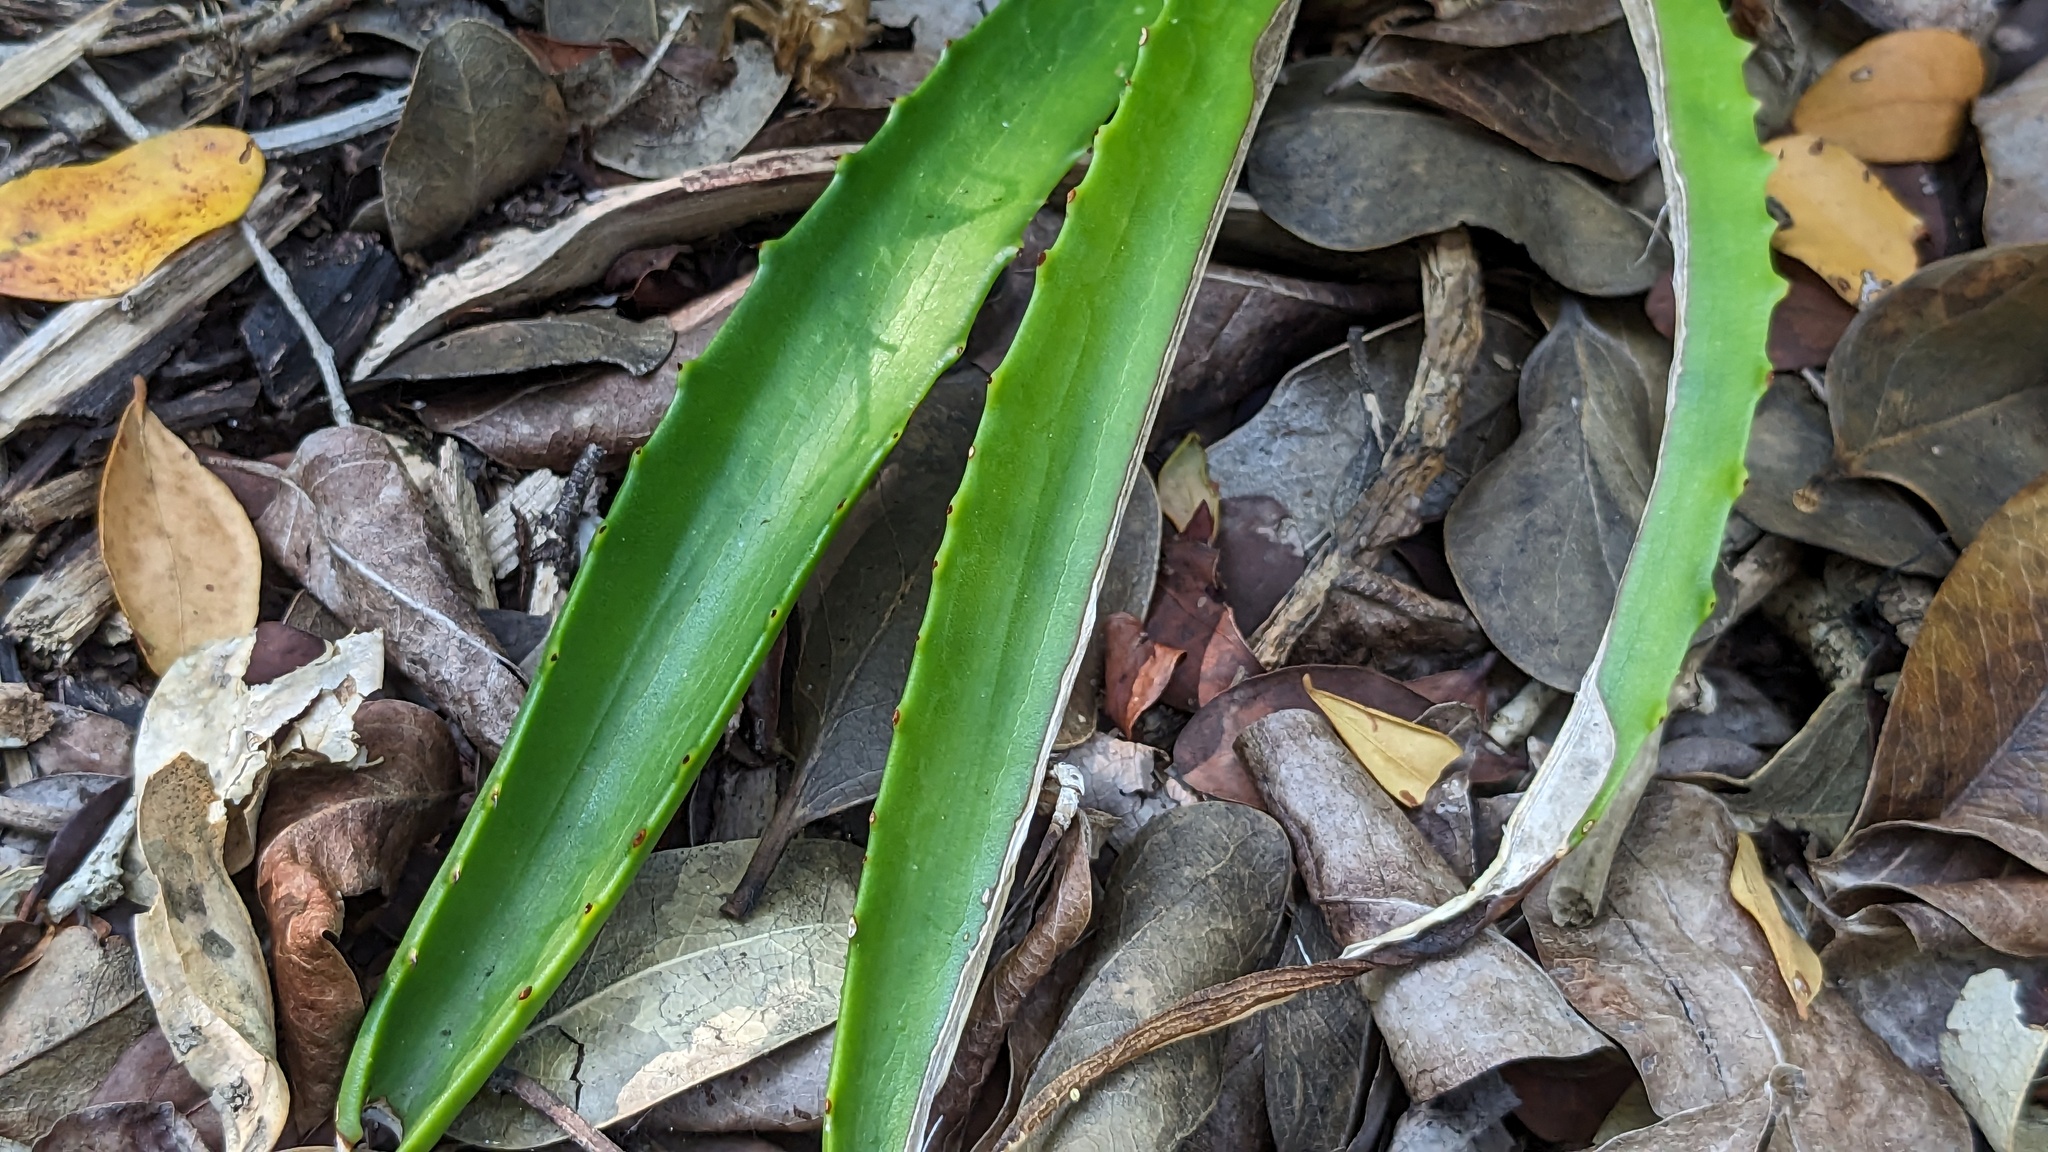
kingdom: Plantae
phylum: Tracheophyta
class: Liliopsida
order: Asparagales
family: Asparagaceae
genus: Agave
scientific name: Agave decipiens
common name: False sisal
